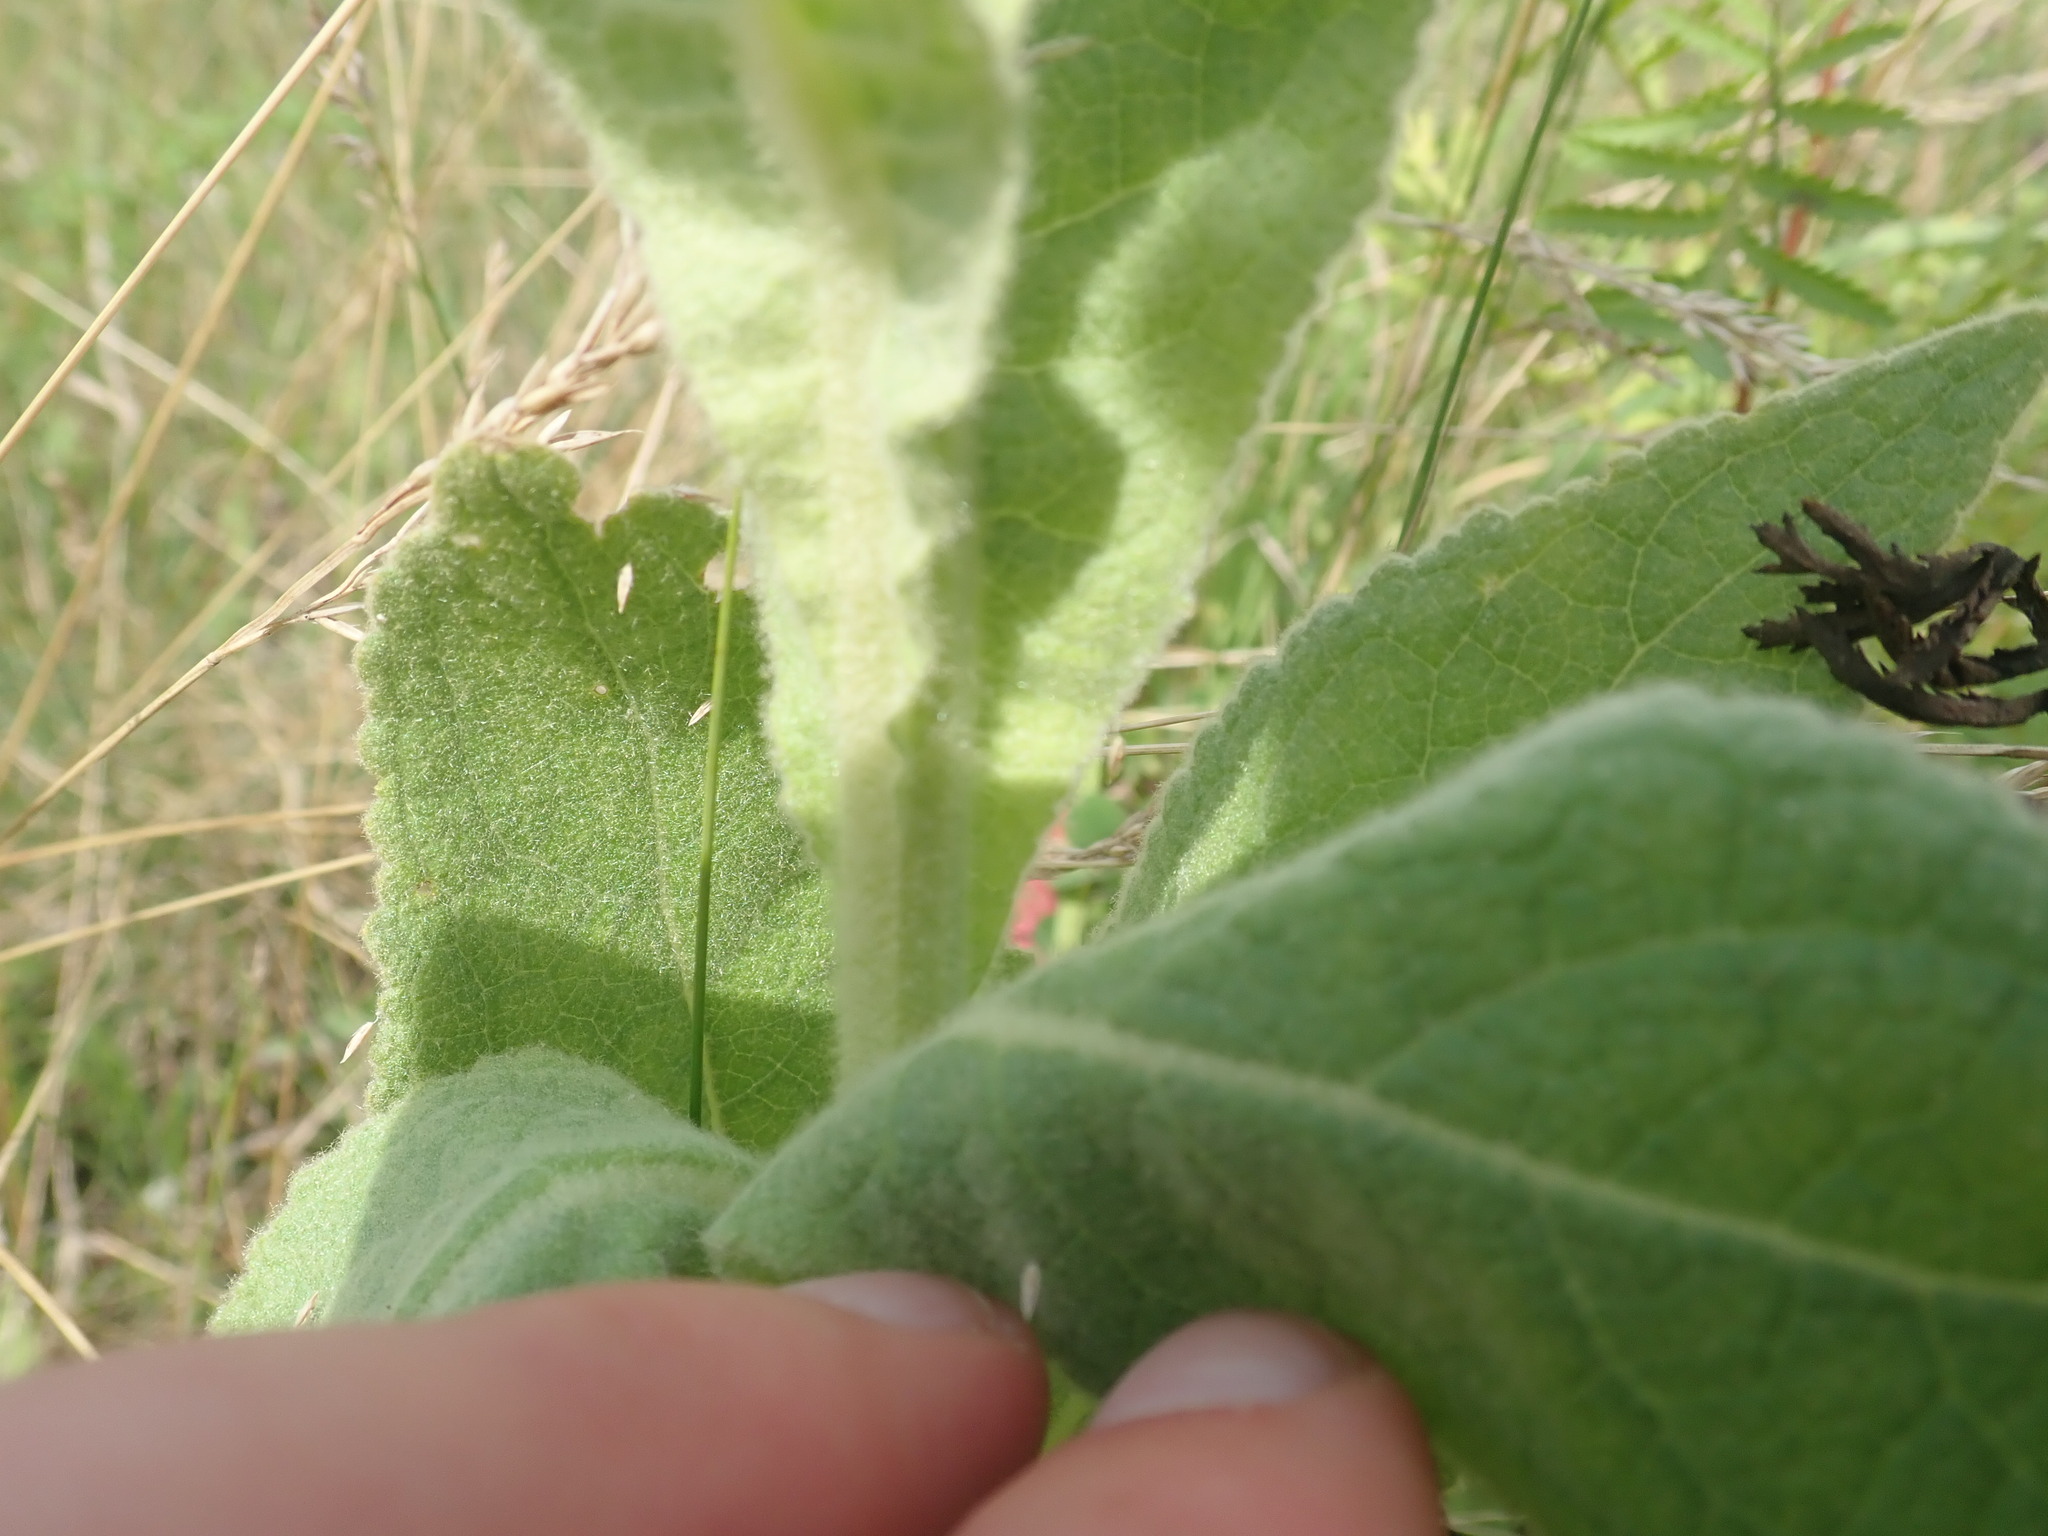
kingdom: Plantae
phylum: Tracheophyta
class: Magnoliopsida
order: Lamiales
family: Scrophulariaceae
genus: Verbascum
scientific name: Verbascum thapsus
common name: Common mullein
